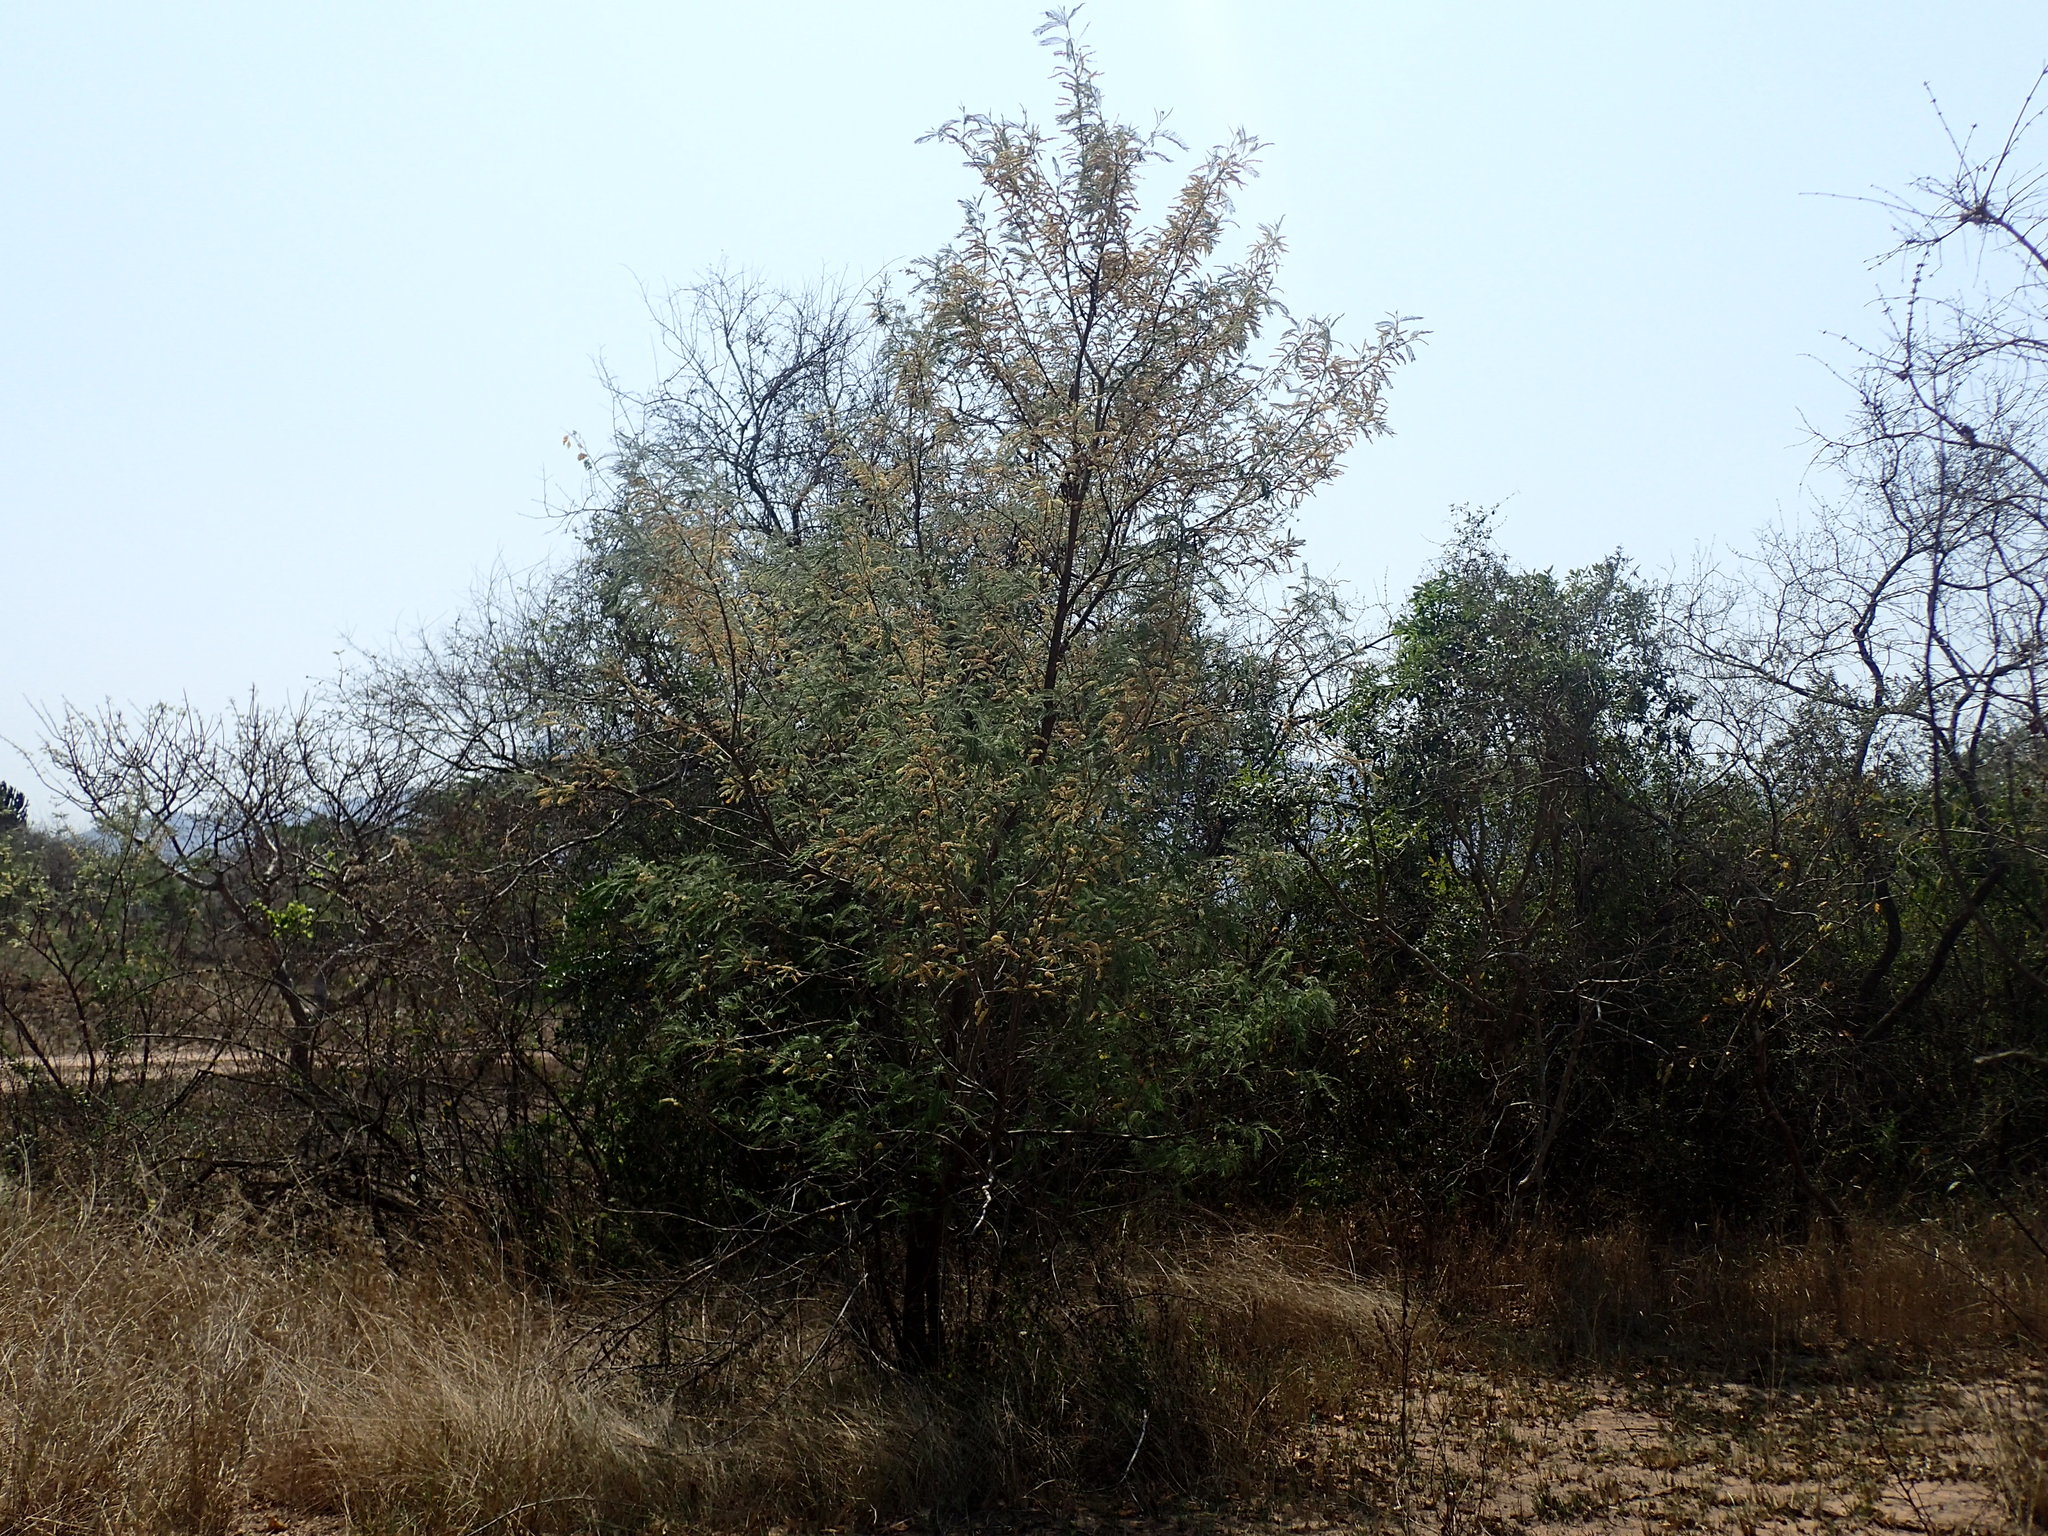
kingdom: Plantae
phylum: Tracheophyta
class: Magnoliopsida
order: Fabales
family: Fabaceae
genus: Senegalia
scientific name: Senegalia caffra
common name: Cat thorn
